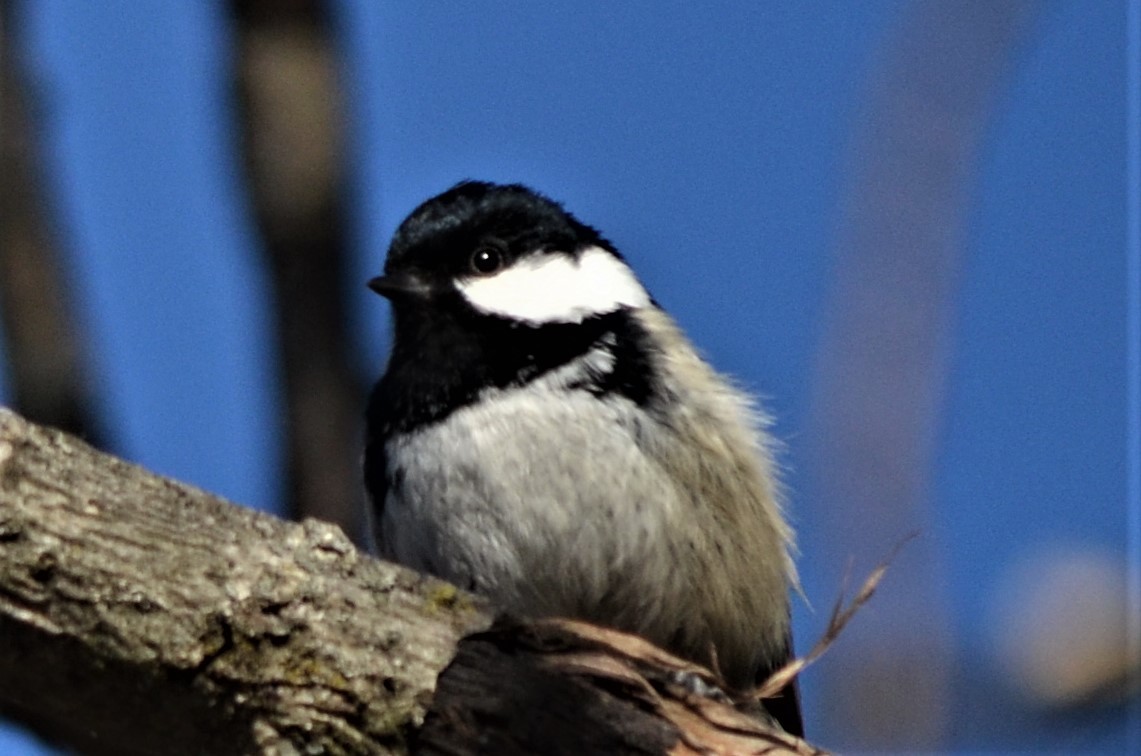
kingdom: Animalia
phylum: Chordata
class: Aves
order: Passeriformes
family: Paridae
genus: Periparus
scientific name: Periparus ater
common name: Coal tit
